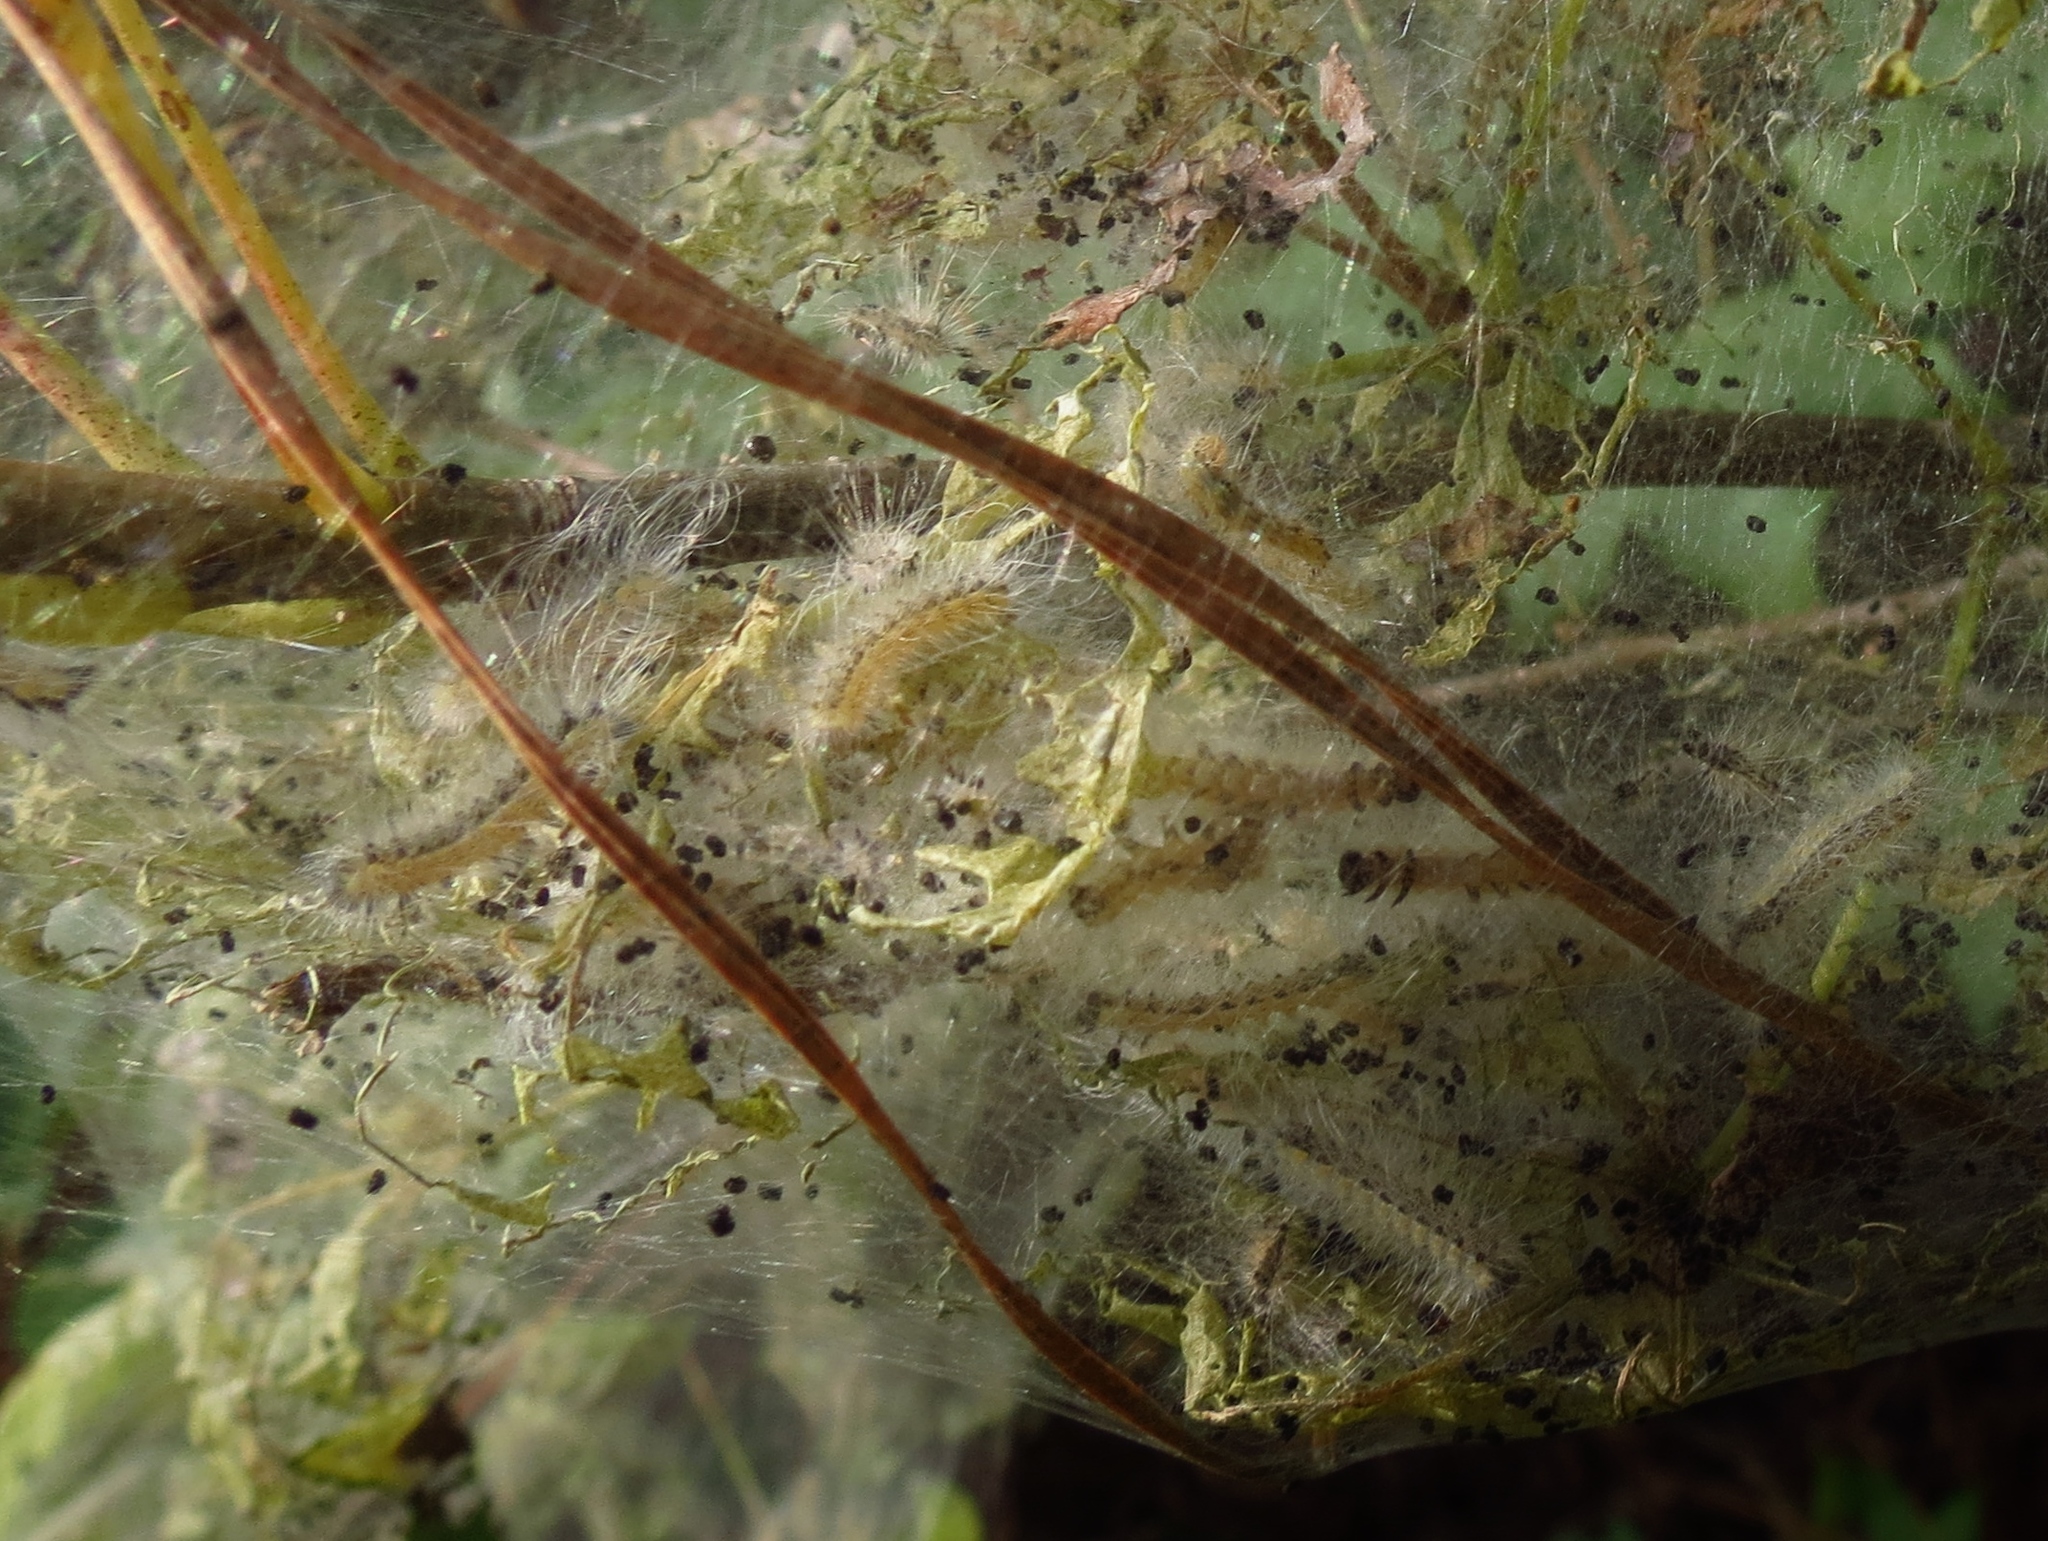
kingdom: Animalia
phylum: Arthropoda
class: Insecta
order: Lepidoptera
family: Erebidae
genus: Hyphantria
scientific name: Hyphantria cunea
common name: American white moth
